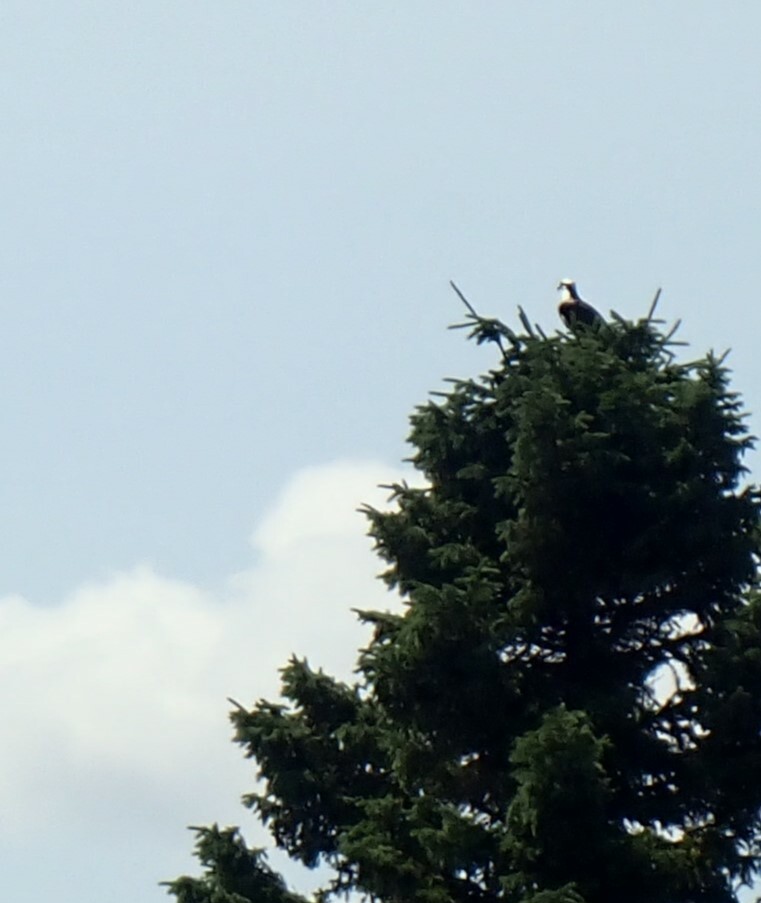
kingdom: Animalia
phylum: Chordata
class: Aves
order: Accipitriformes
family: Pandionidae
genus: Pandion
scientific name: Pandion haliaetus
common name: Osprey
